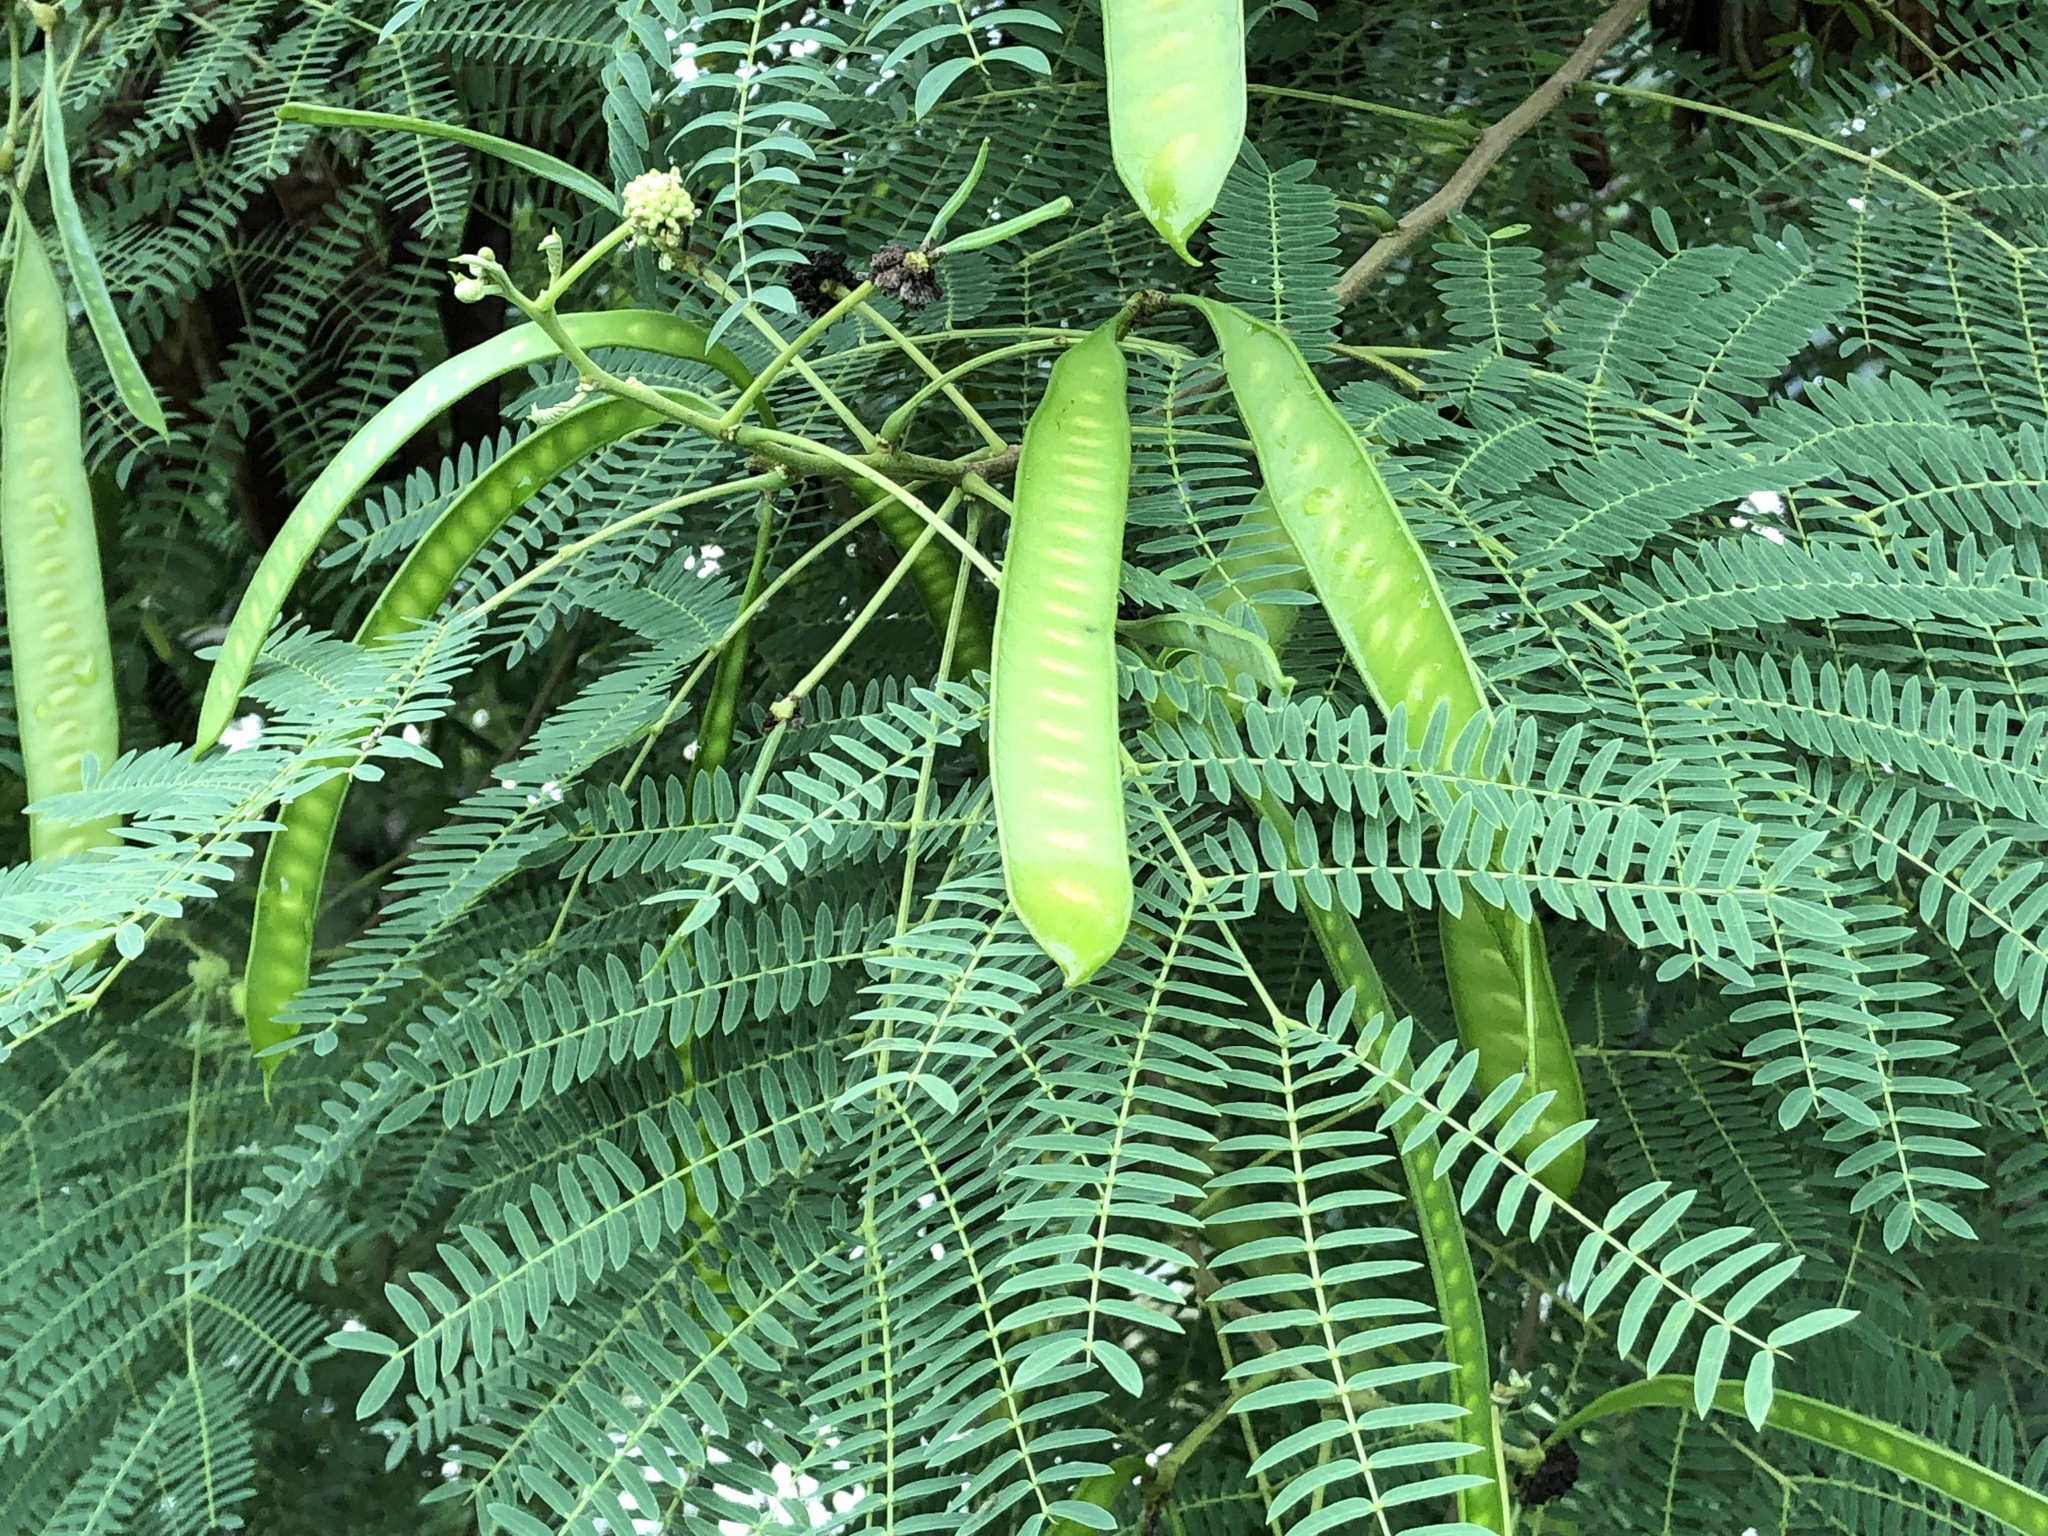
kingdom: Plantae
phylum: Tracheophyta
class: Magnoliopsida
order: Fabales
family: Fabaceae
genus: Leucaena
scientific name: Leucaena leucocephala
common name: White leadtree
